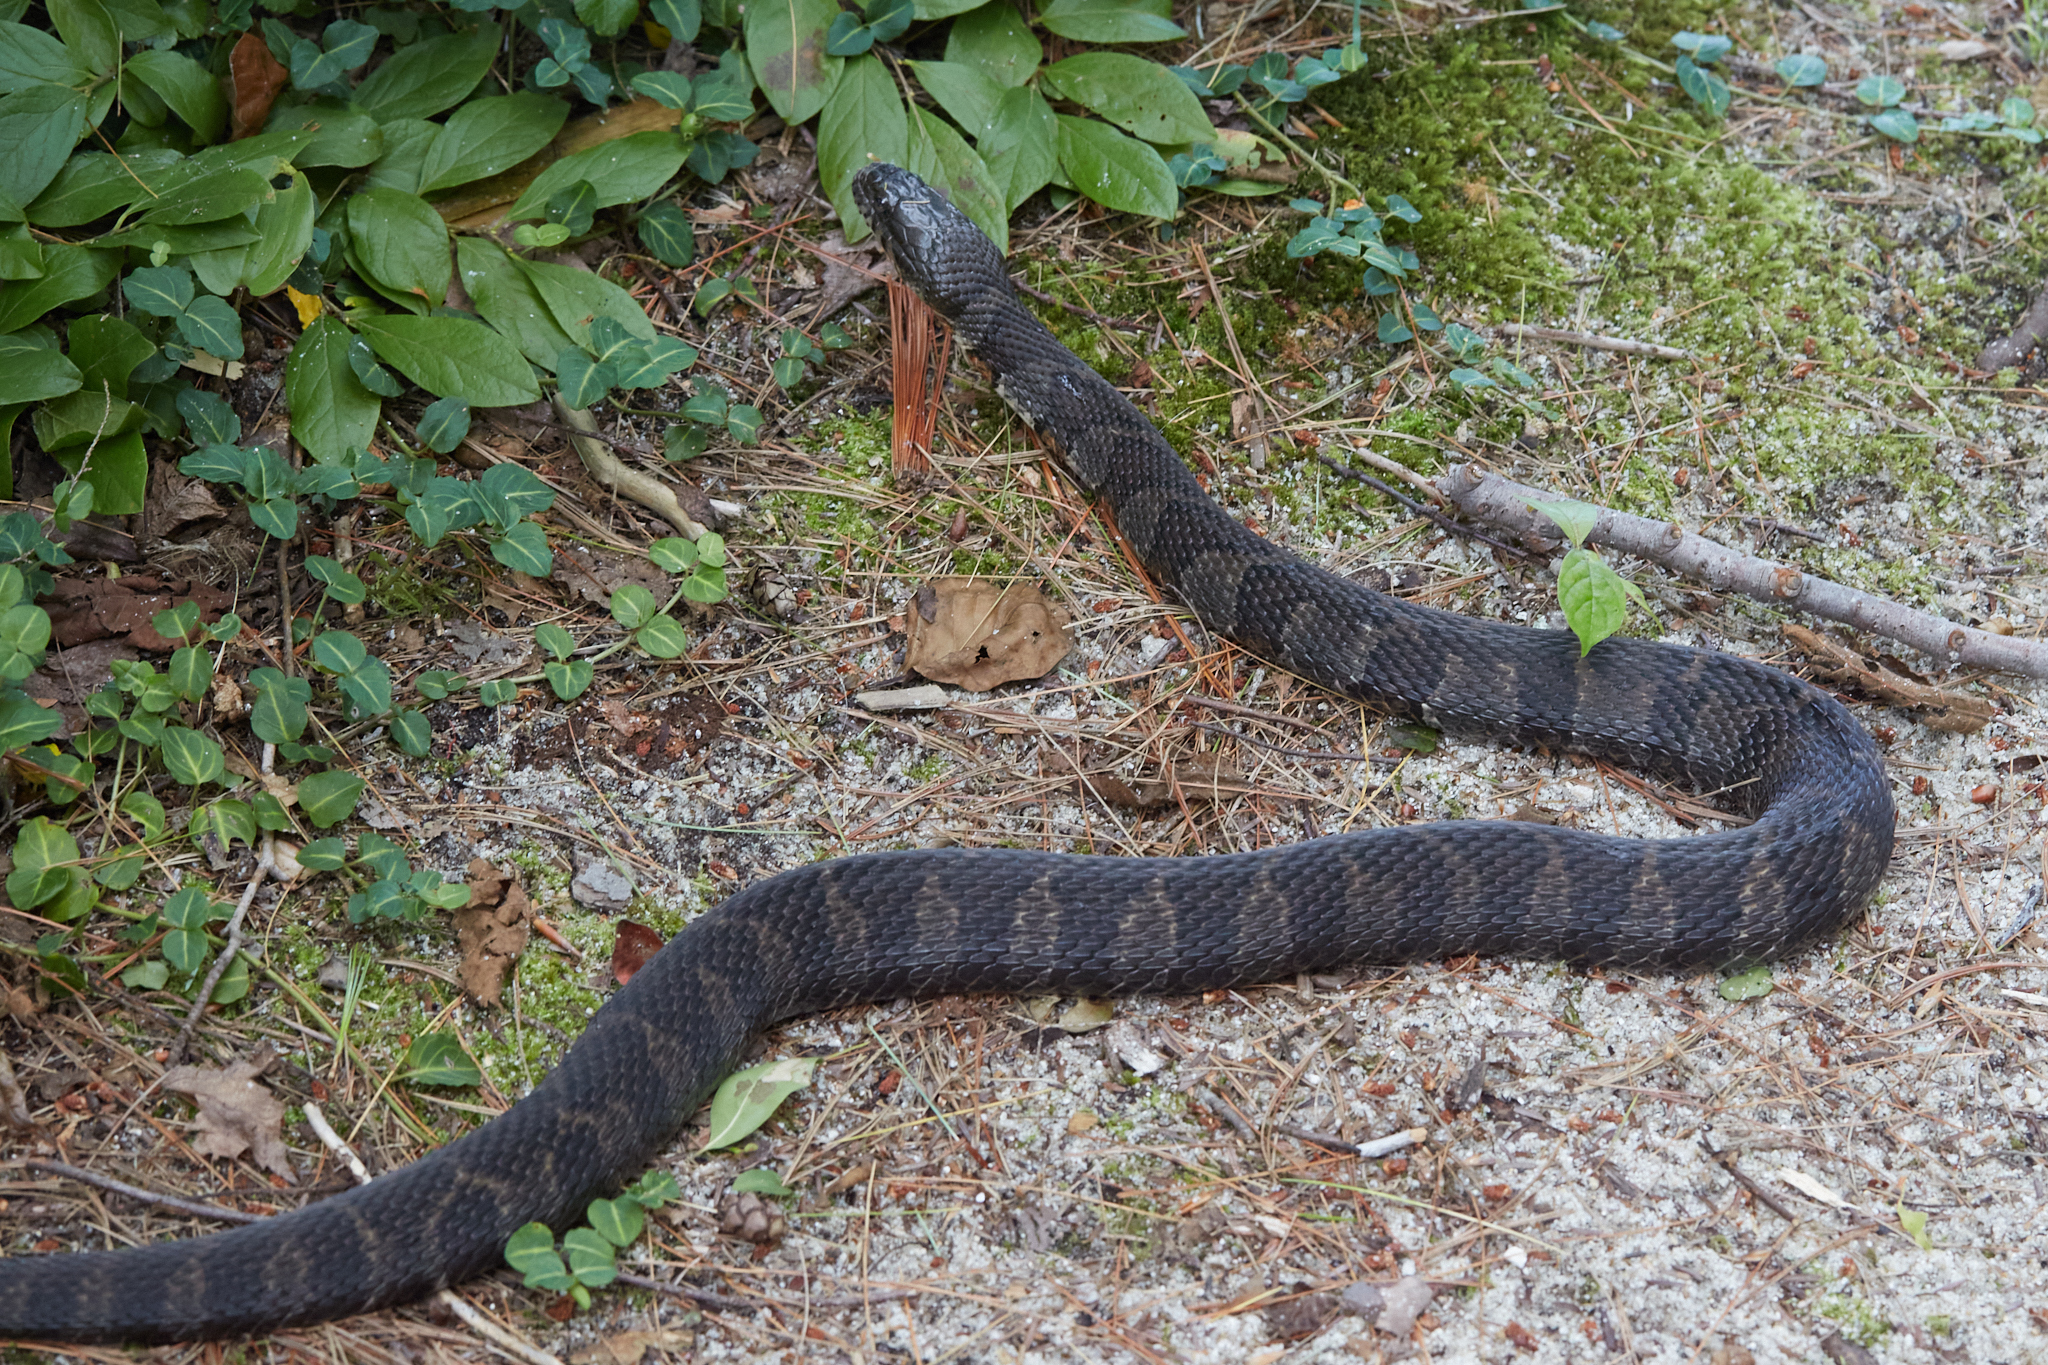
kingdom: Animalia
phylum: Chordata
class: Squamata
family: Colubridae
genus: Nerodia
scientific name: Nerodia sipedon
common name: Northern water snake
